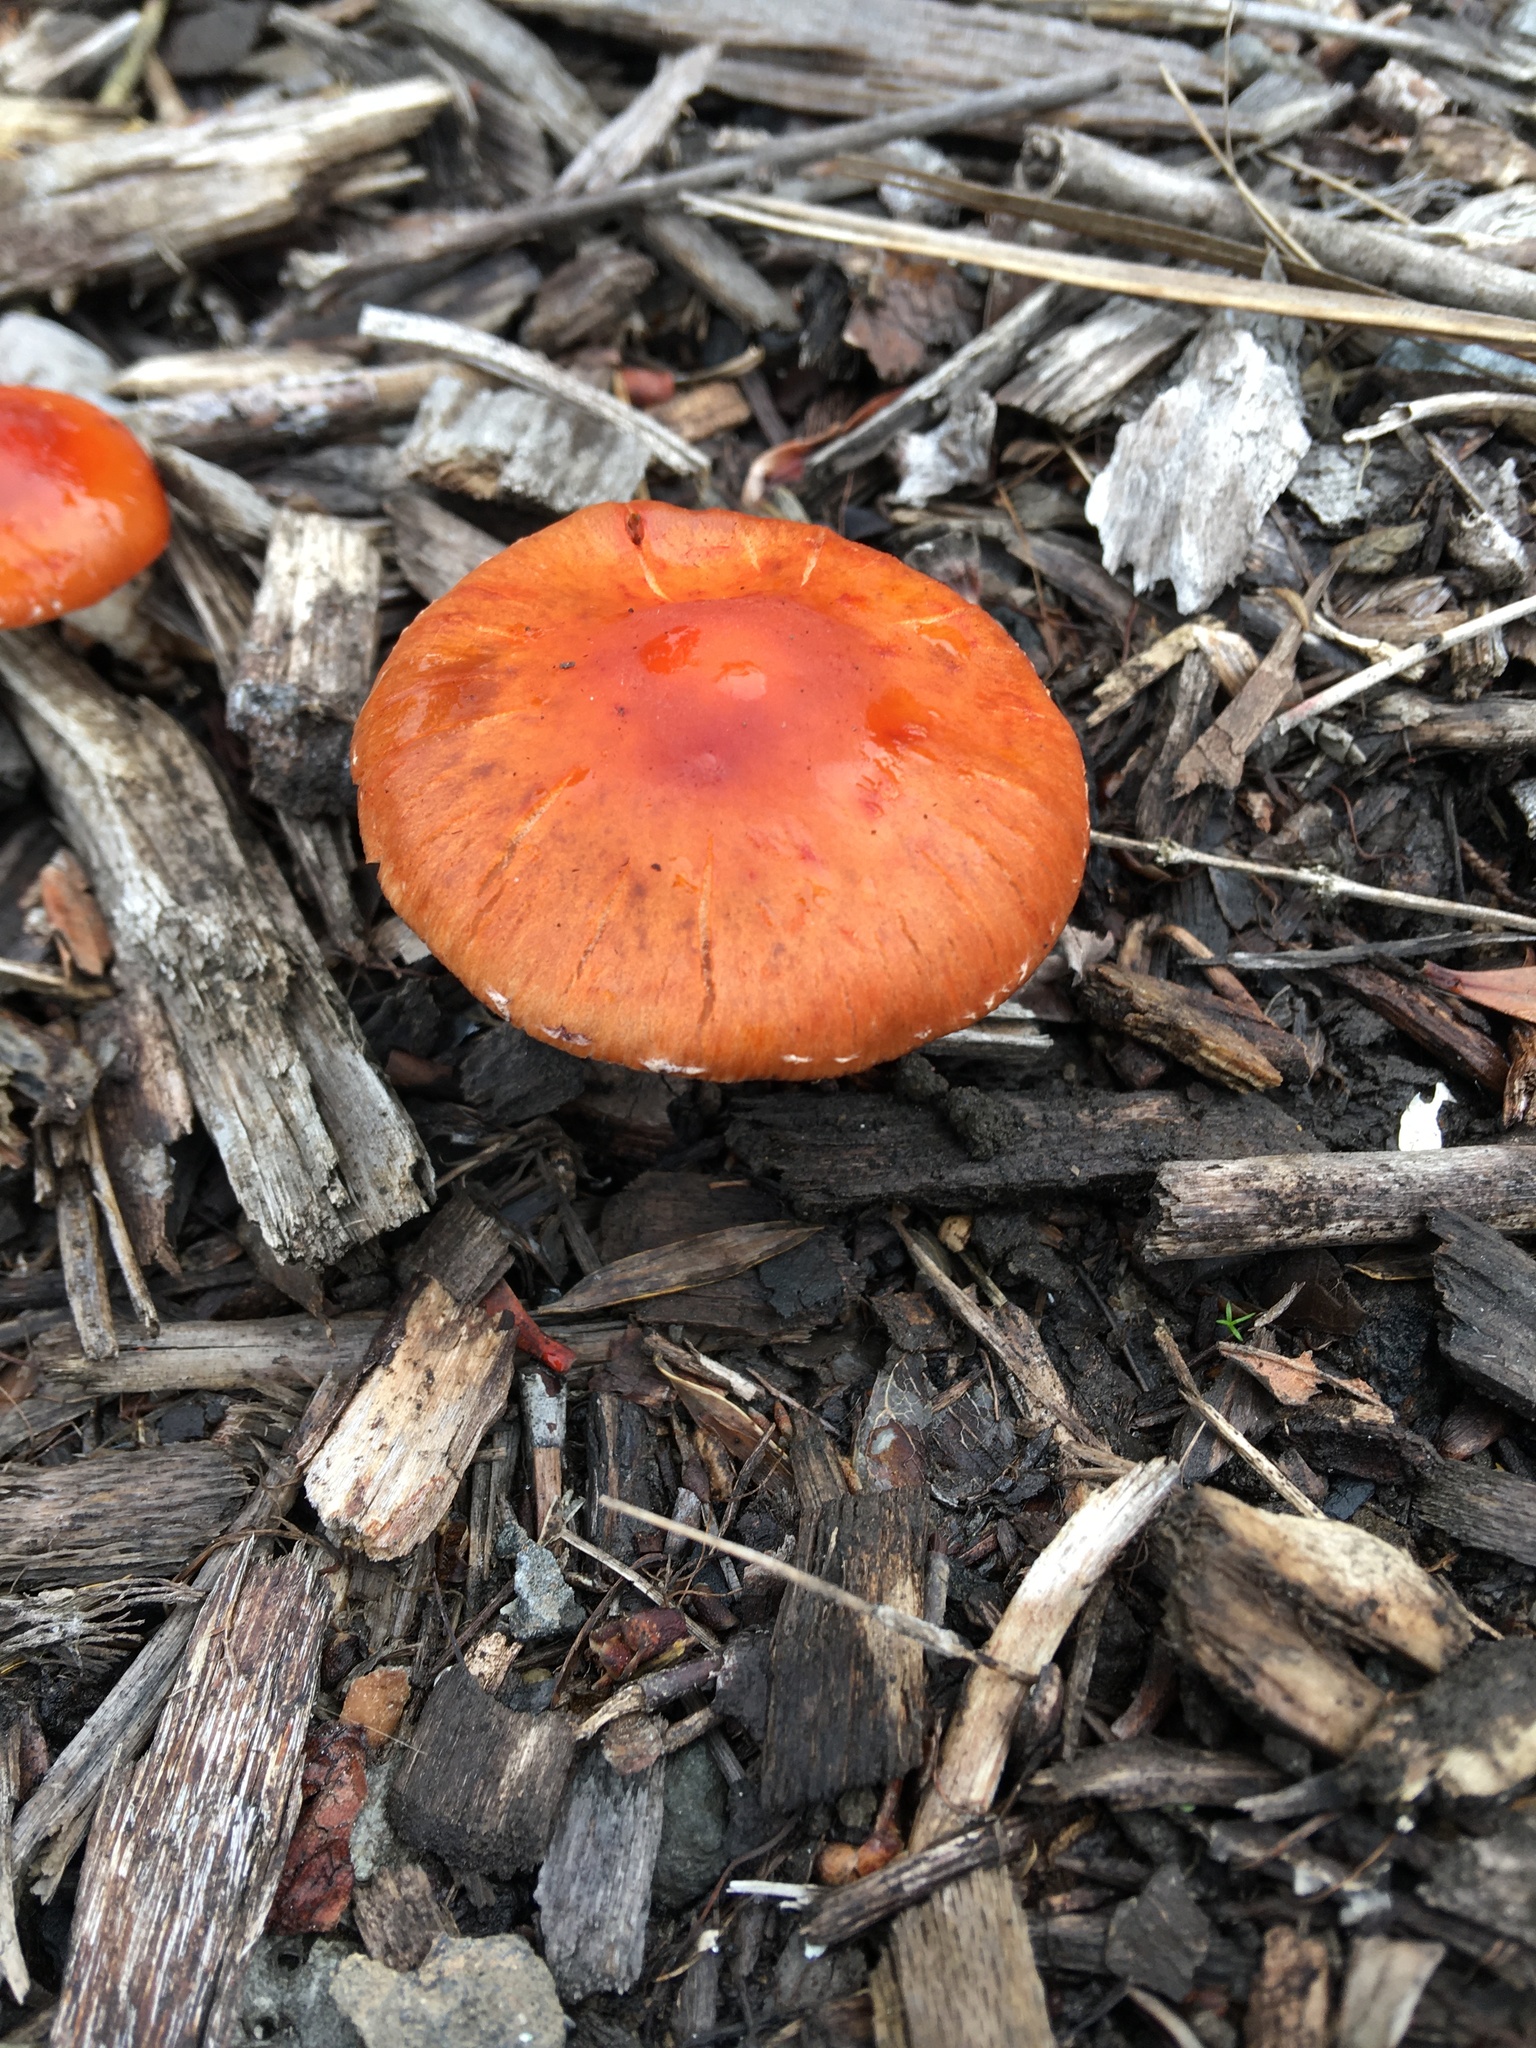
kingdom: Fungi
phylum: Basidiomycota
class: Agaricomycetes
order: Agaricales
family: Strophariaceae
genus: Leratiomyces
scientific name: Leratiomyces ceres
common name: Redlead roundhead
